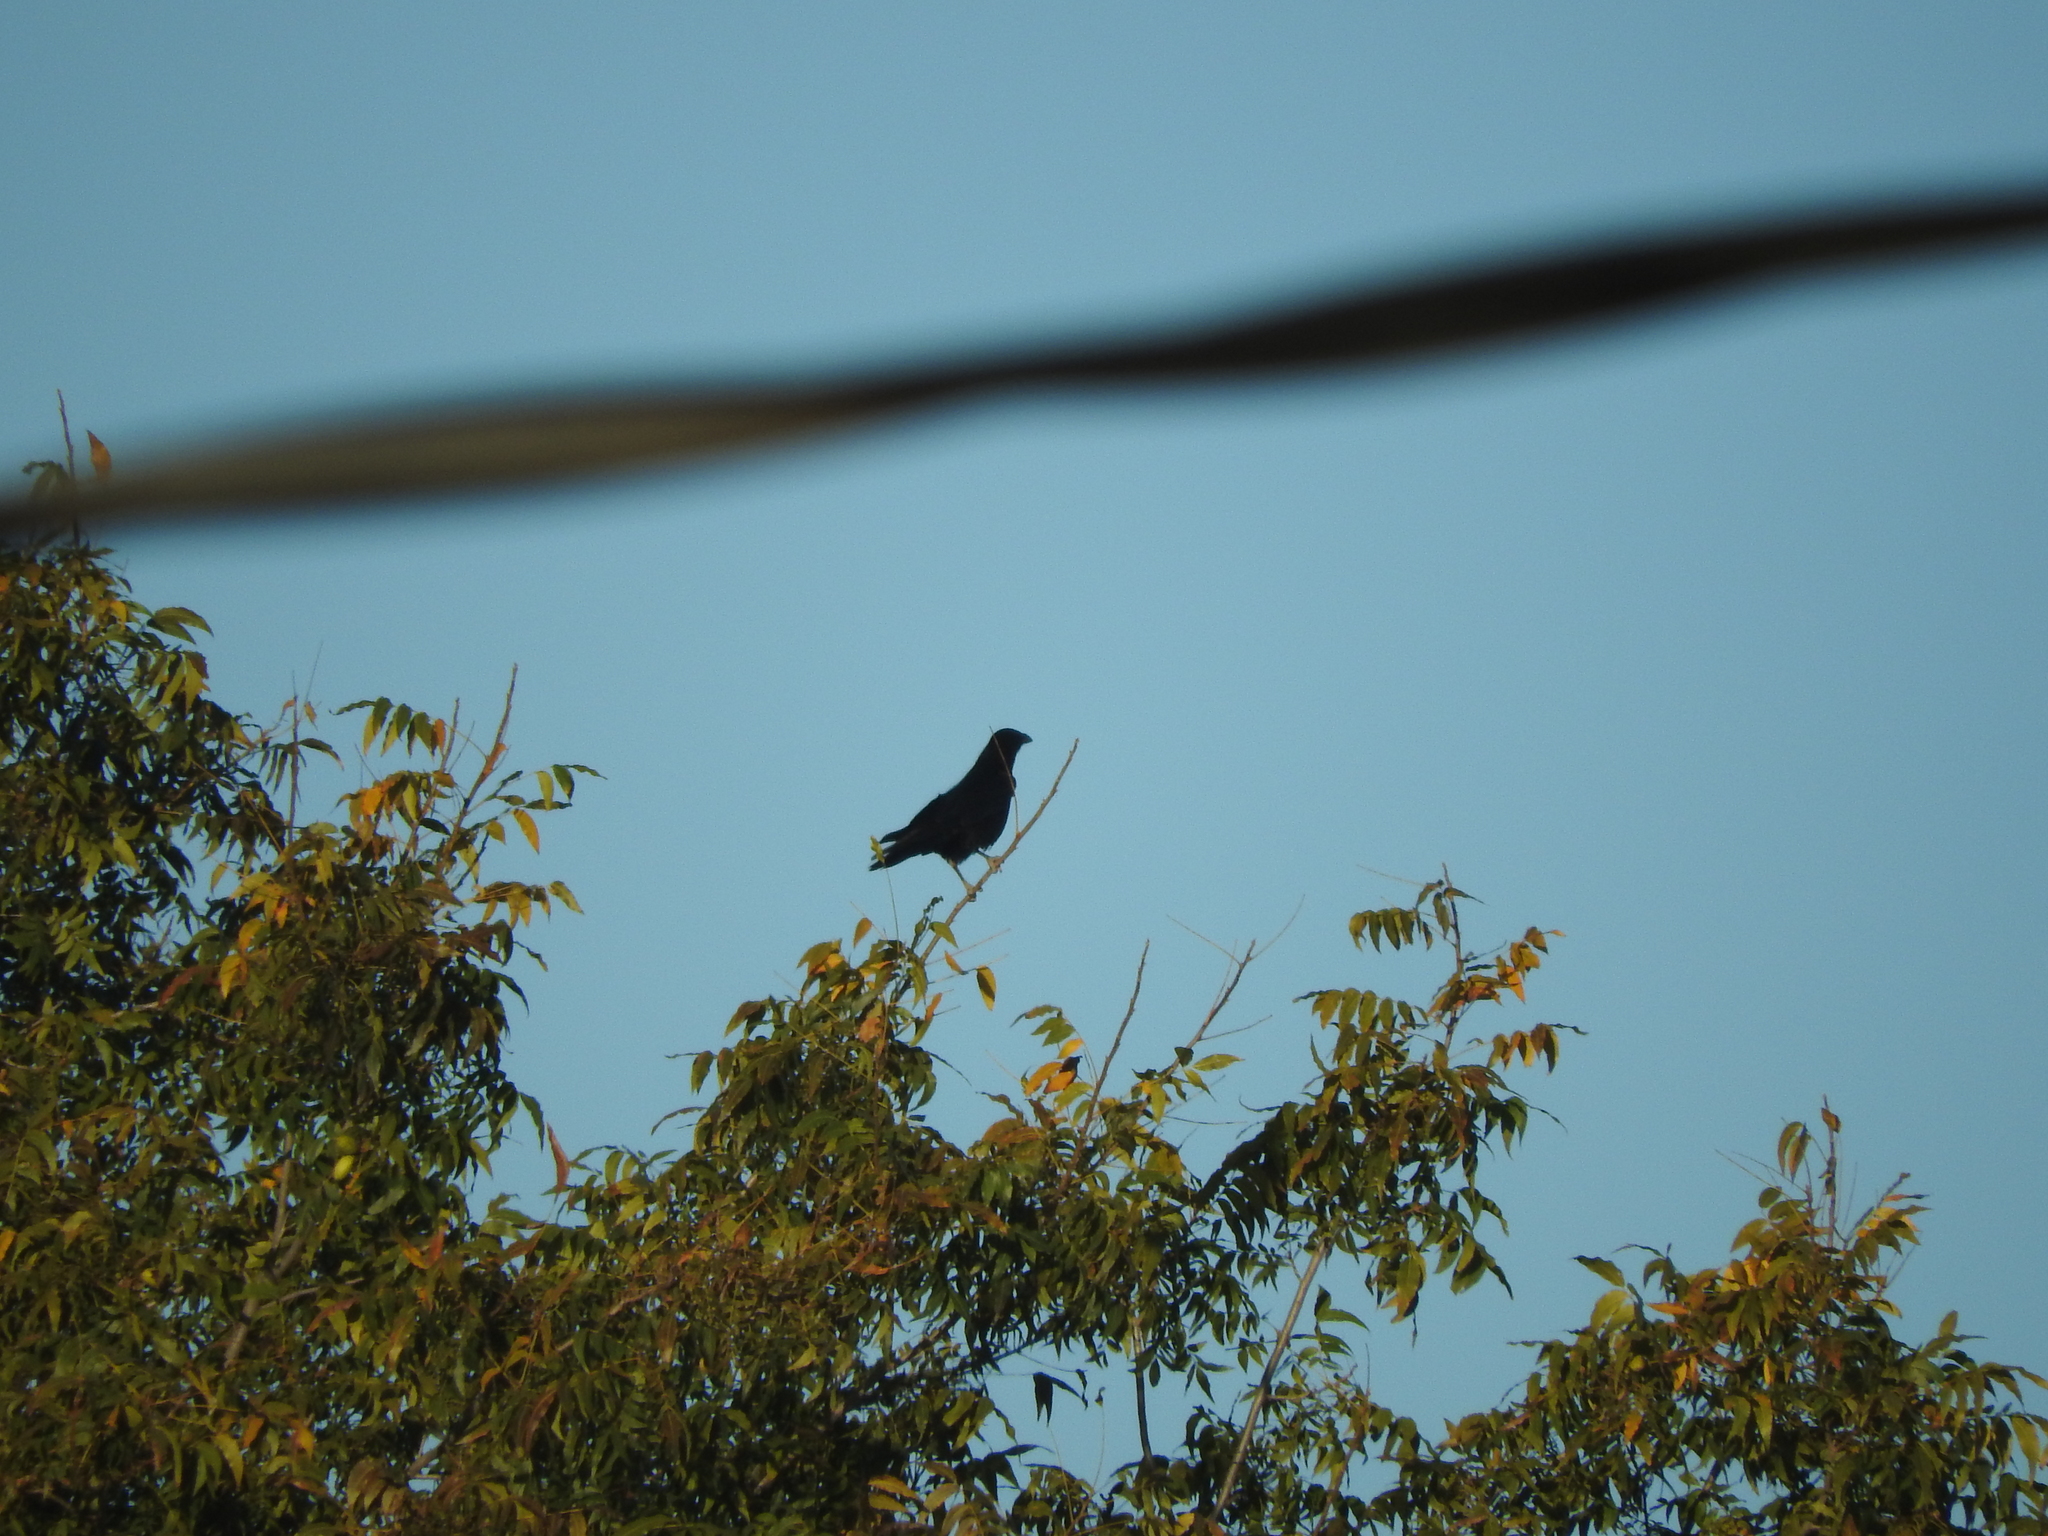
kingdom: Animalia
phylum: Chordata
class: Aves
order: Passeriformes
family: Corvidae
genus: Corvus
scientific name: Corvus corax
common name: Common raven
